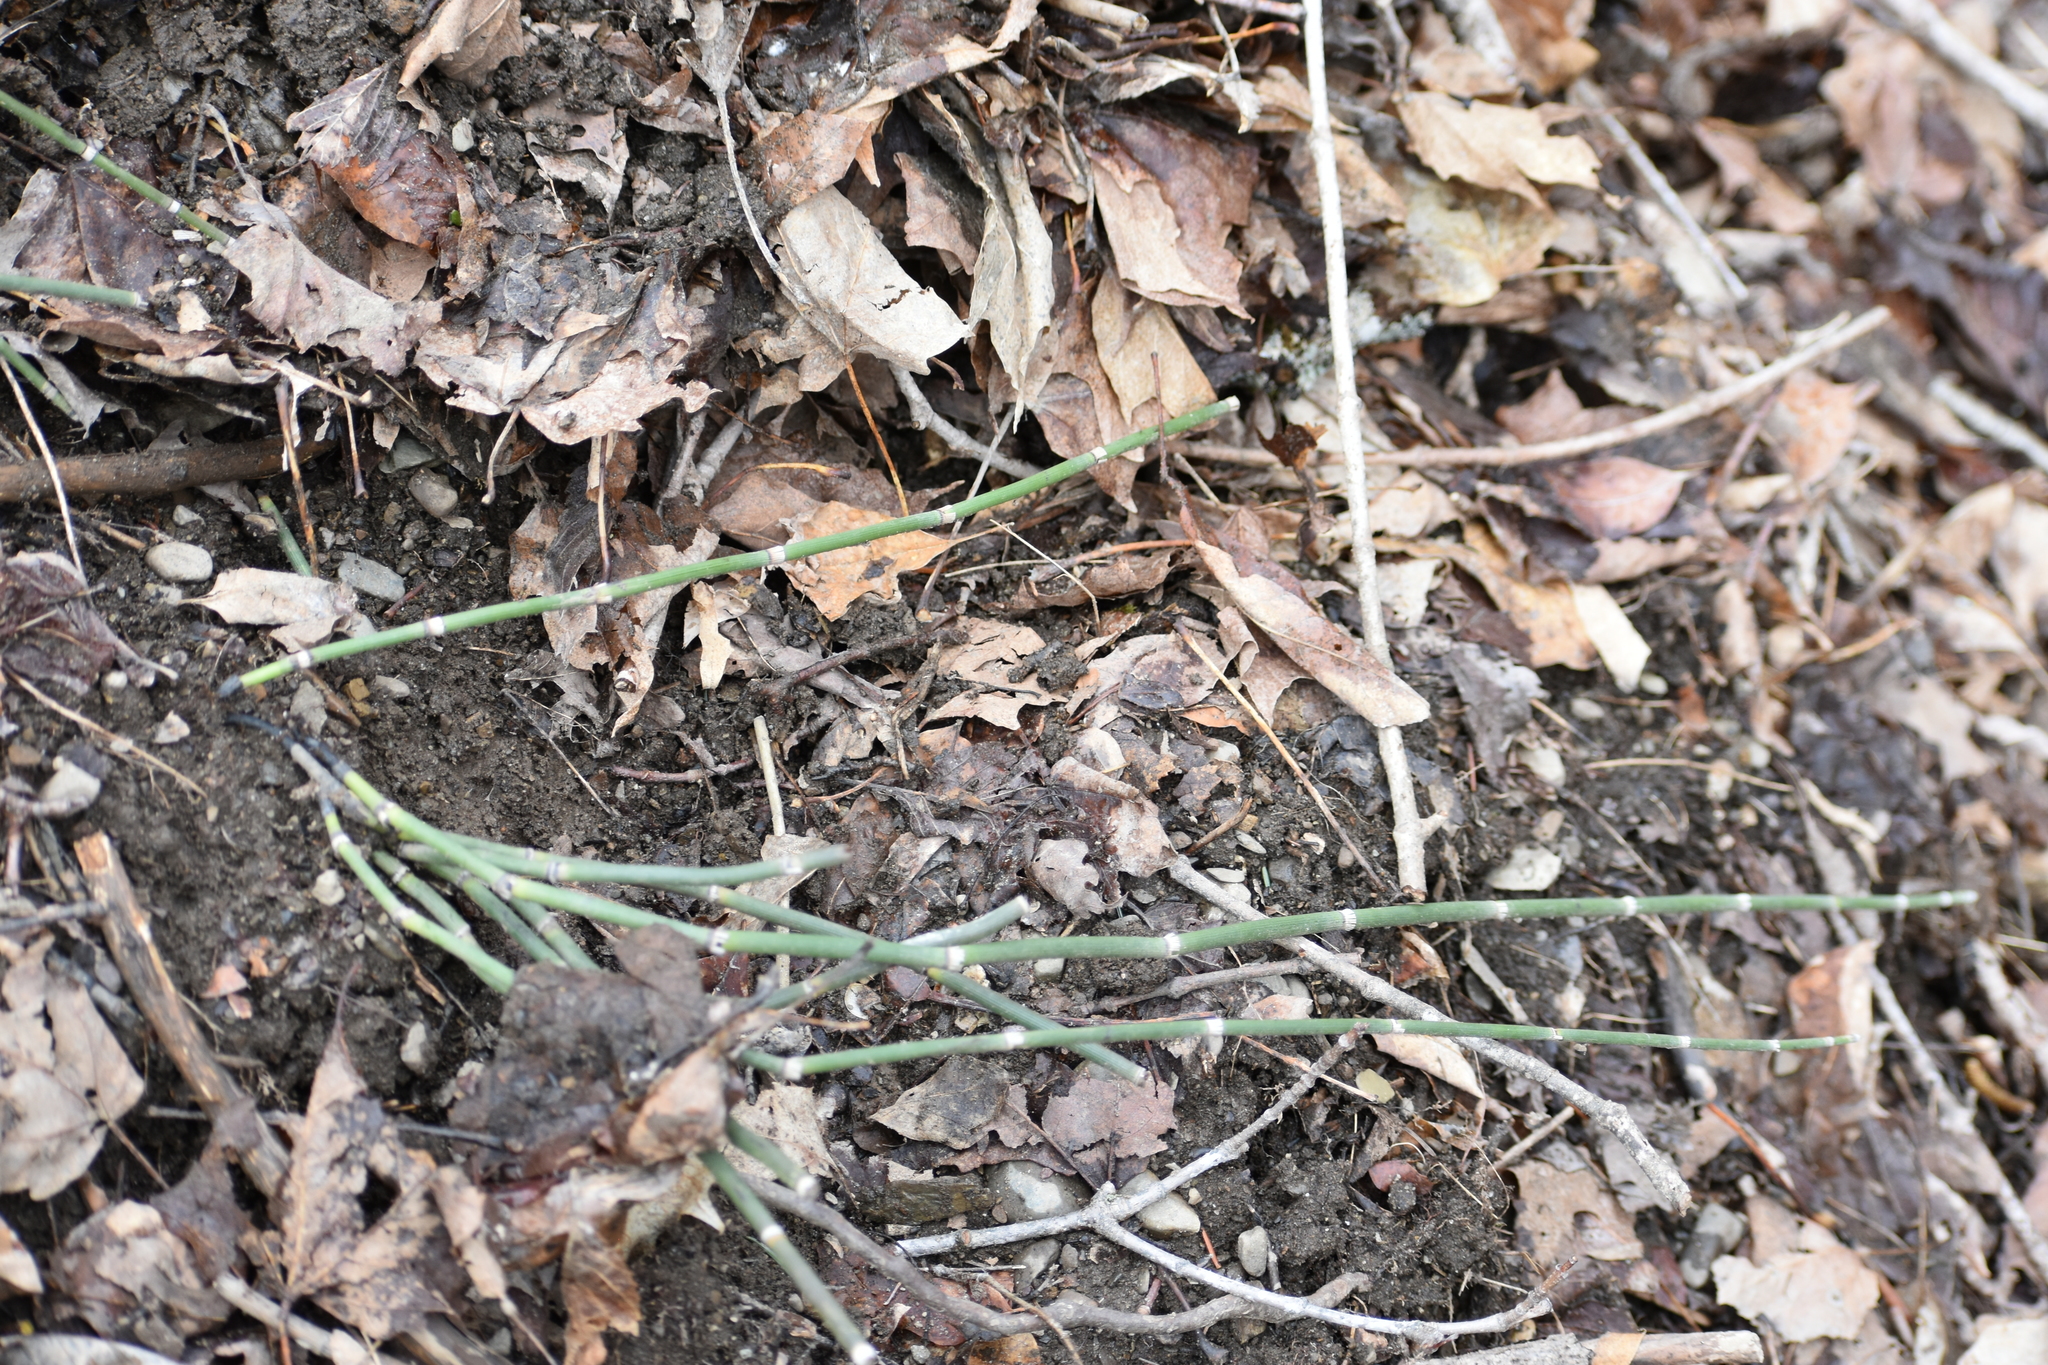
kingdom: Plantae
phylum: Tracheophyta
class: Polypodiopsida
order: Equisetales
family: Equisetaceae
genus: Equisetum
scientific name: Equisetum praealtum
